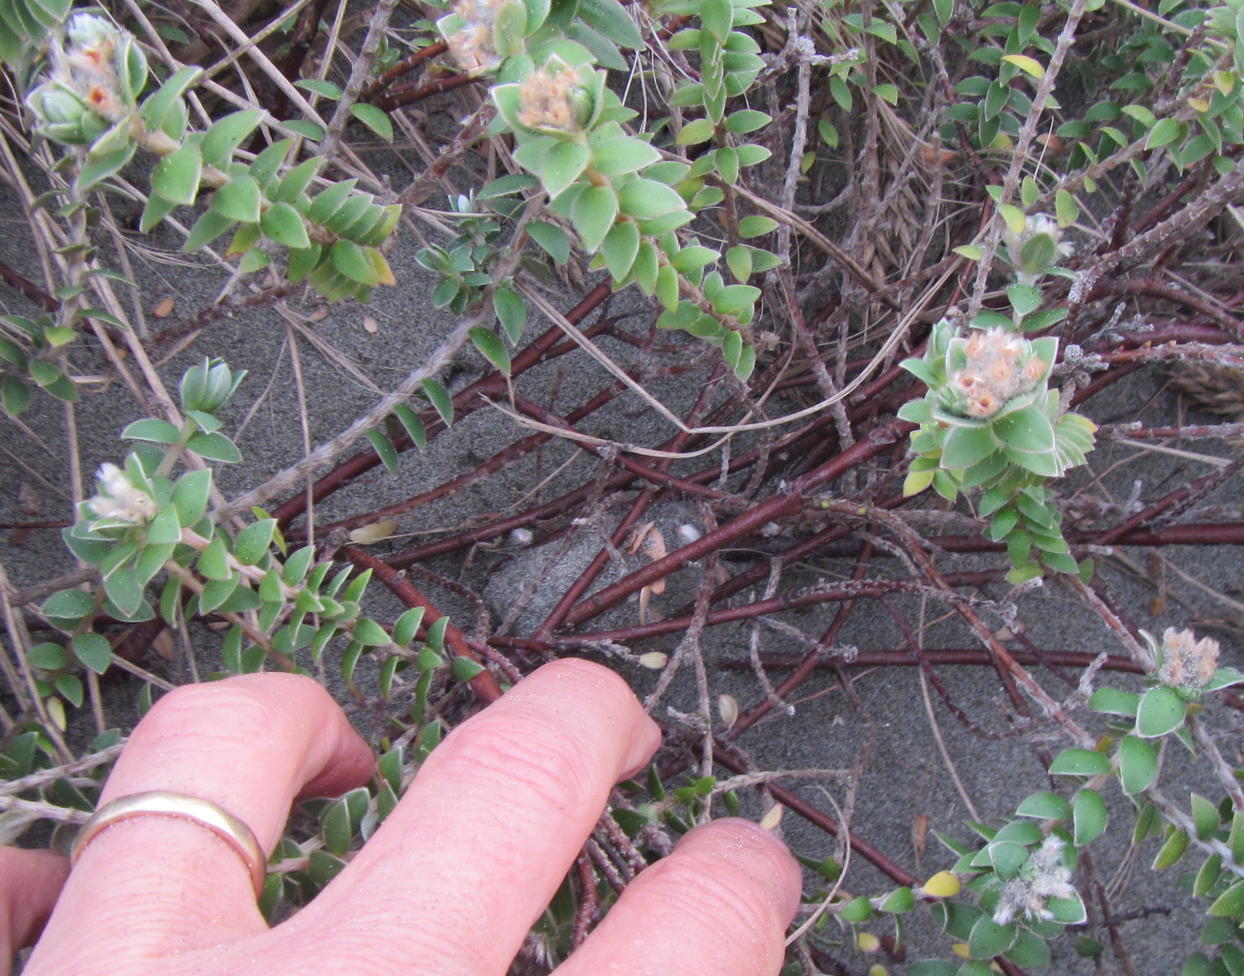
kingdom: Plantae
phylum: Tracheophyta
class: Magnoliopsida
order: Malvales
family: Thymelaeaceae
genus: Pimelea
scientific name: Pimelea villosa
